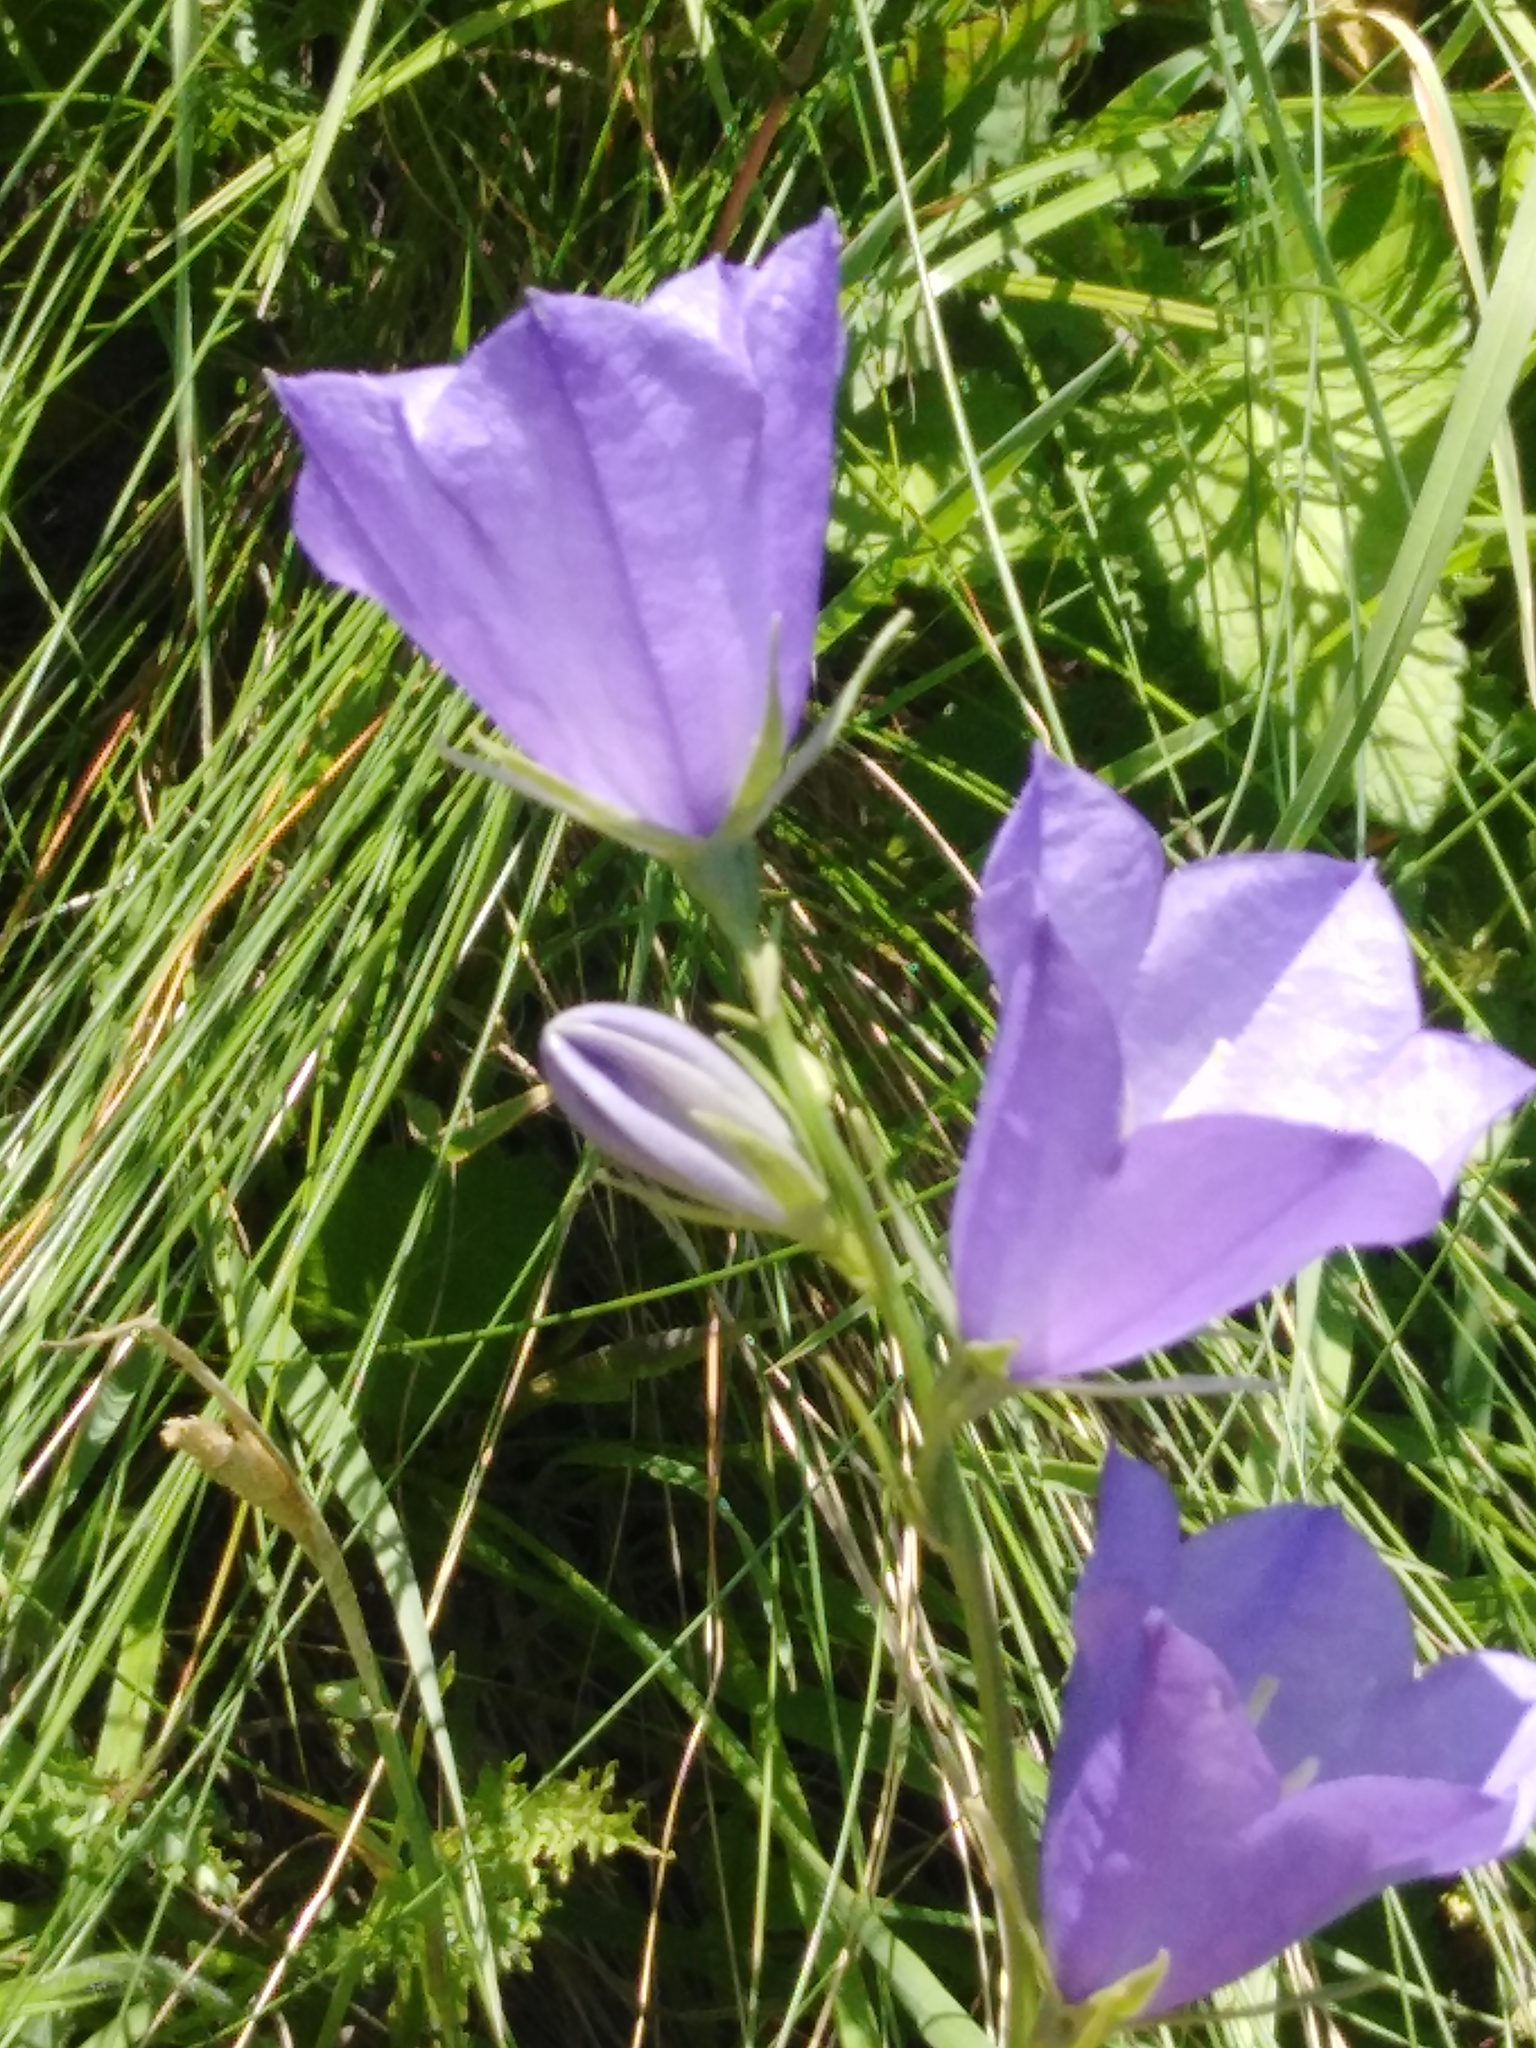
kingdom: Plantae
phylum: Tracheophyta
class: Magnoliopsida
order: Asterales
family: Campanulaceae
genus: Campanula
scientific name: Campanula persicifolia
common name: Peach-leaved bellflower
